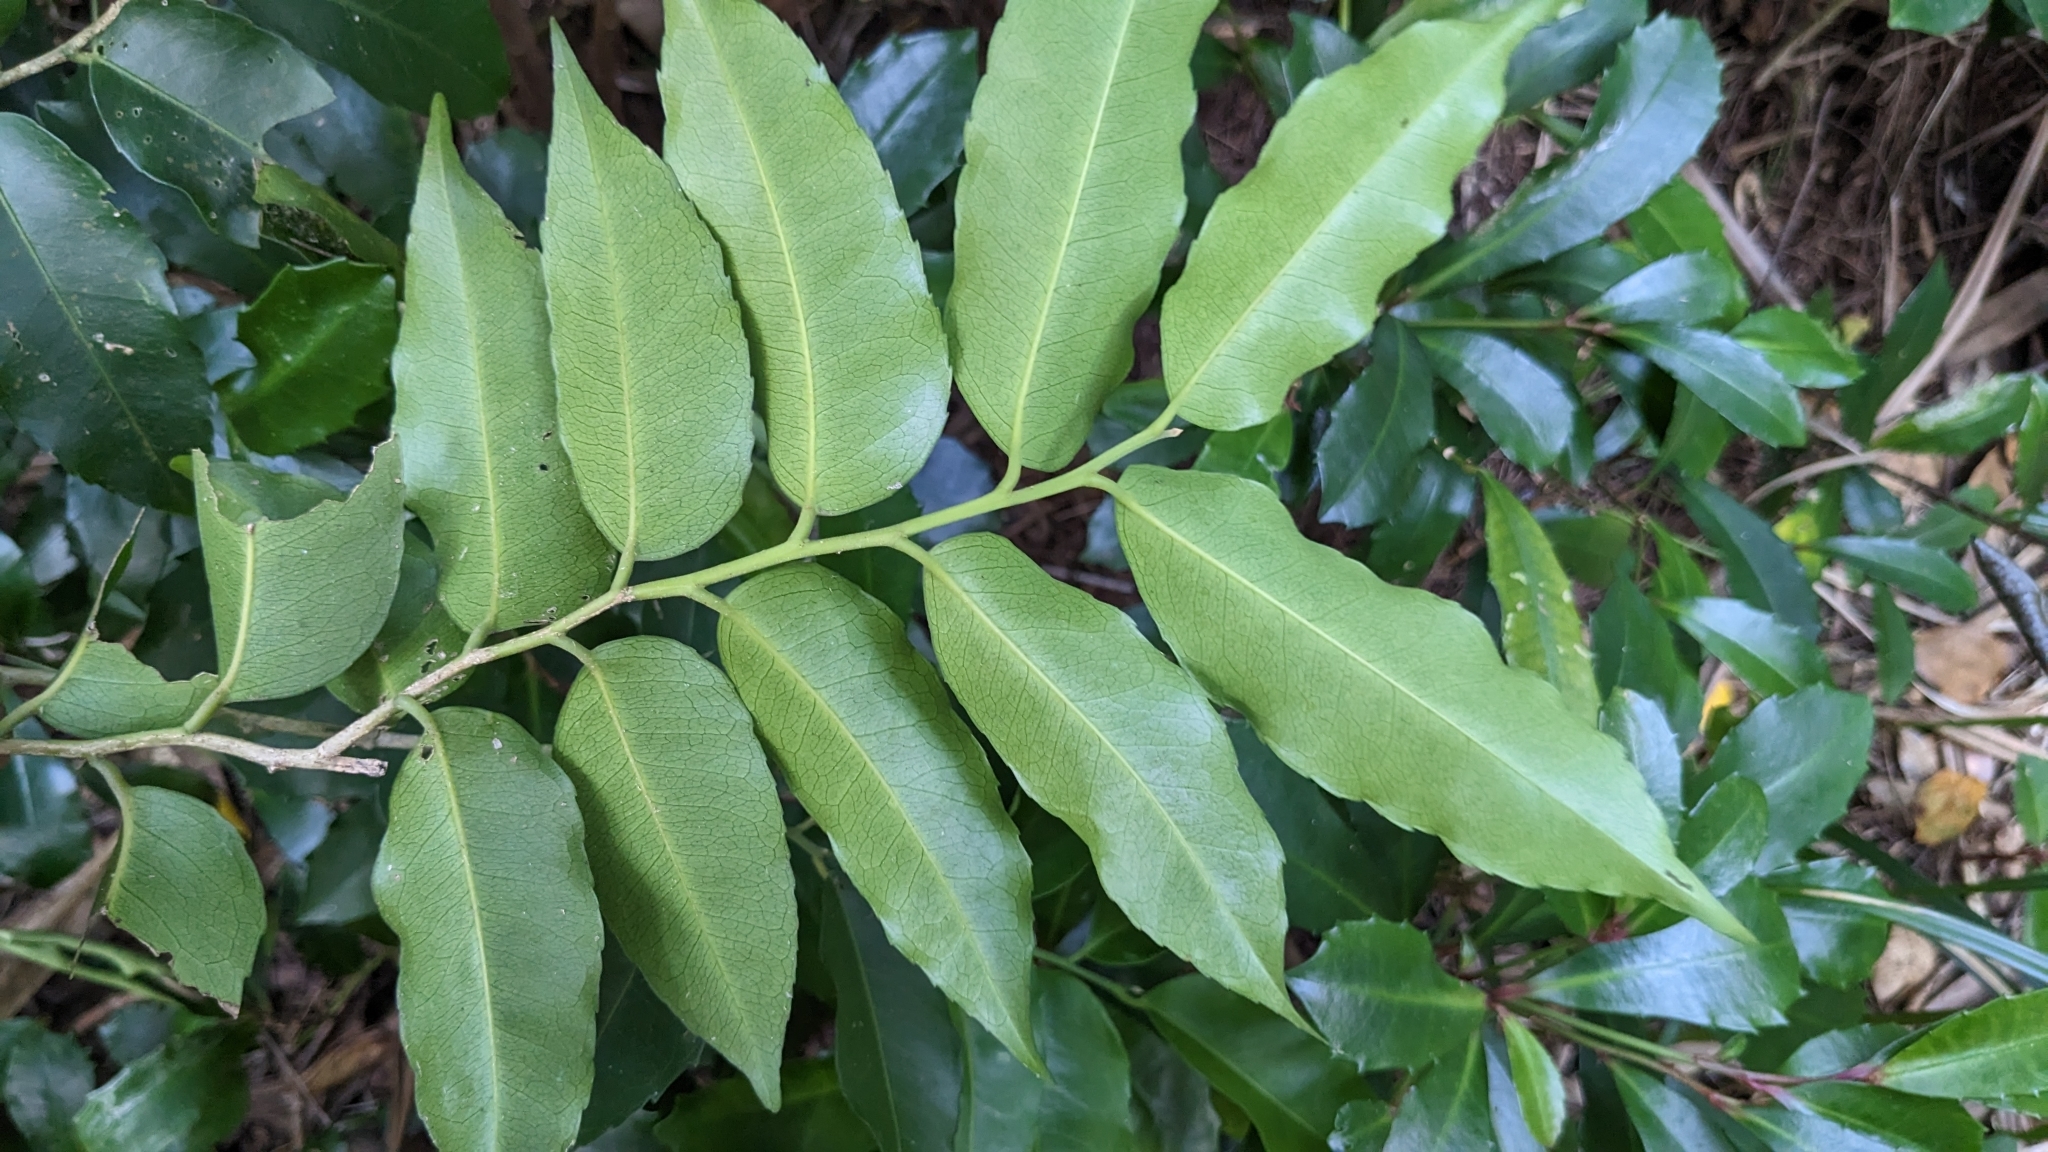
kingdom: Plantae
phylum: Tracheophyta
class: Magnoliopsida
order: Malpighiales
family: Putranjivaceae
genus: Putranjiva
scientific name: Putranjiva formosana
